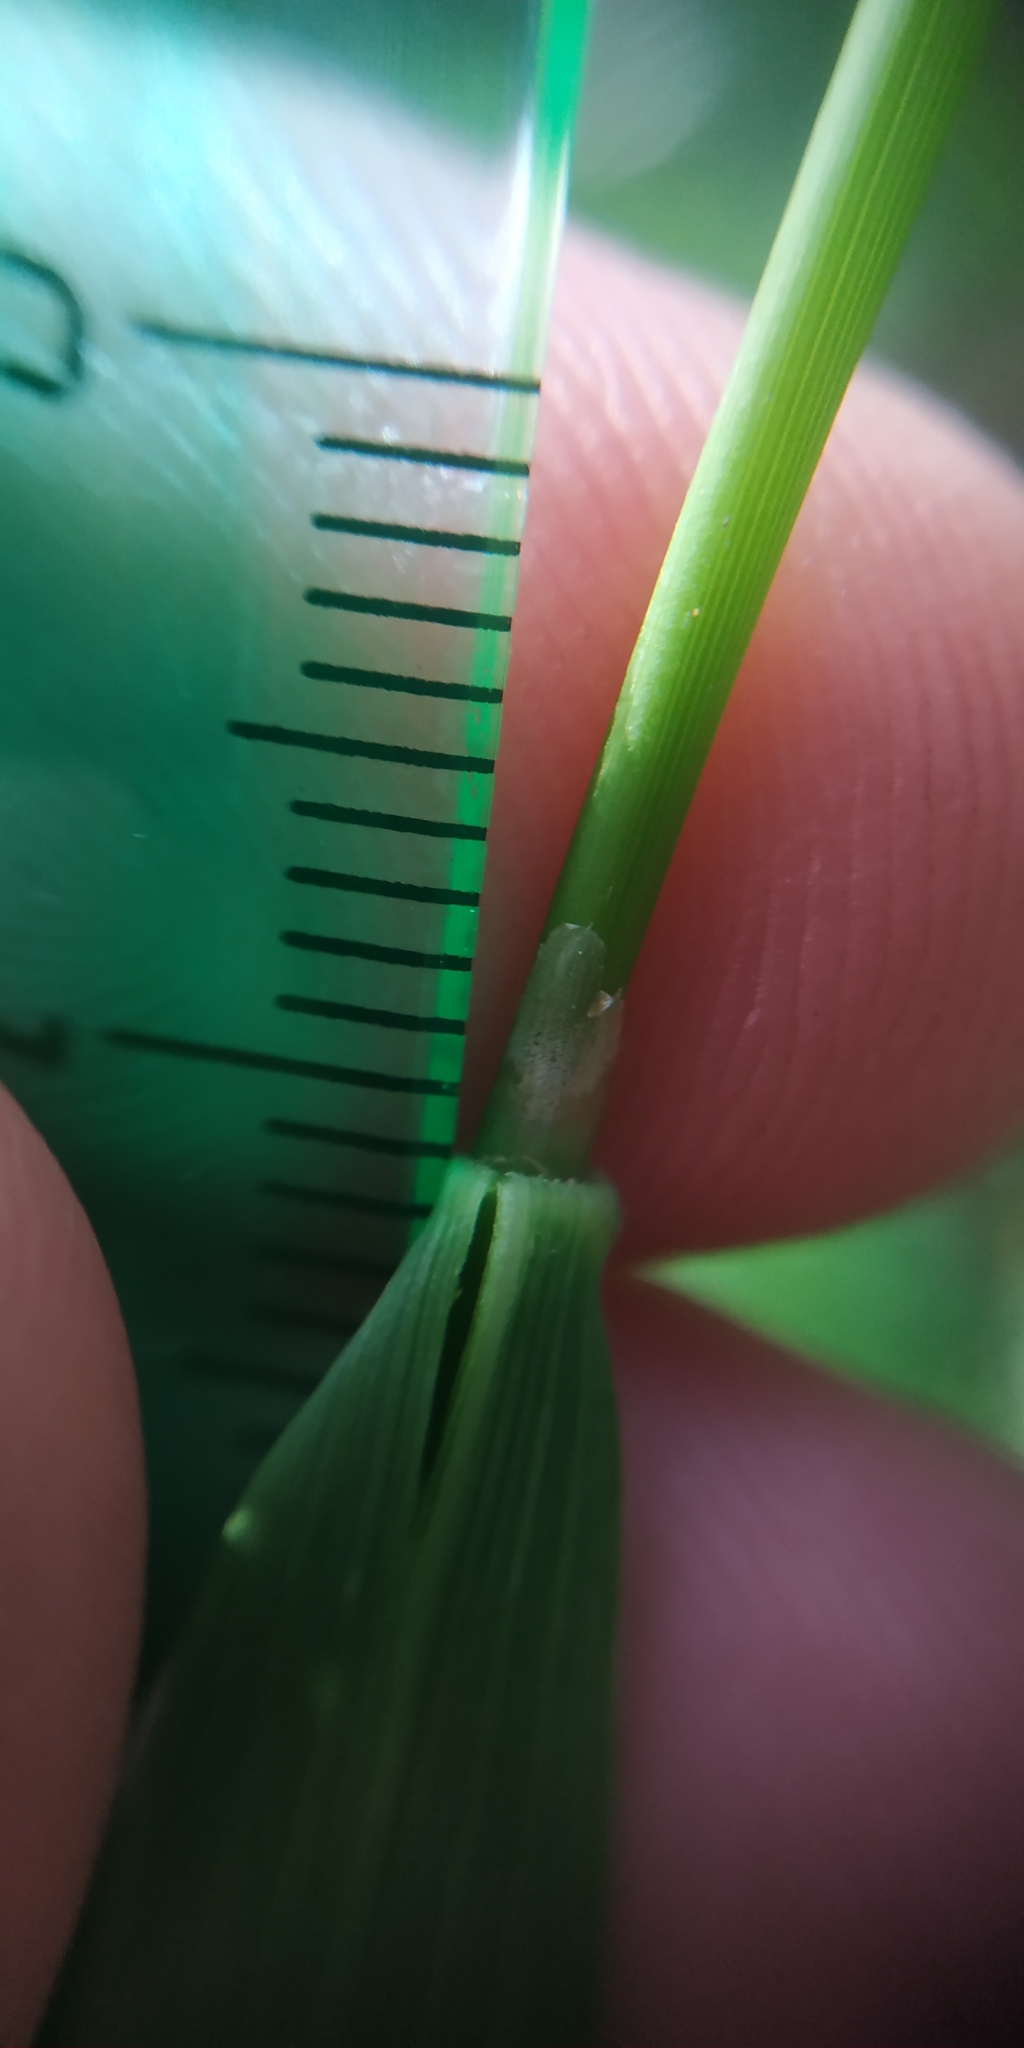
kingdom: Plantae
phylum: Tracheophyta
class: Liliopsida
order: Poales
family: Poaceae
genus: Calamagrostis
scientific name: Calamagrostis arundinacea
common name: Metskastik
